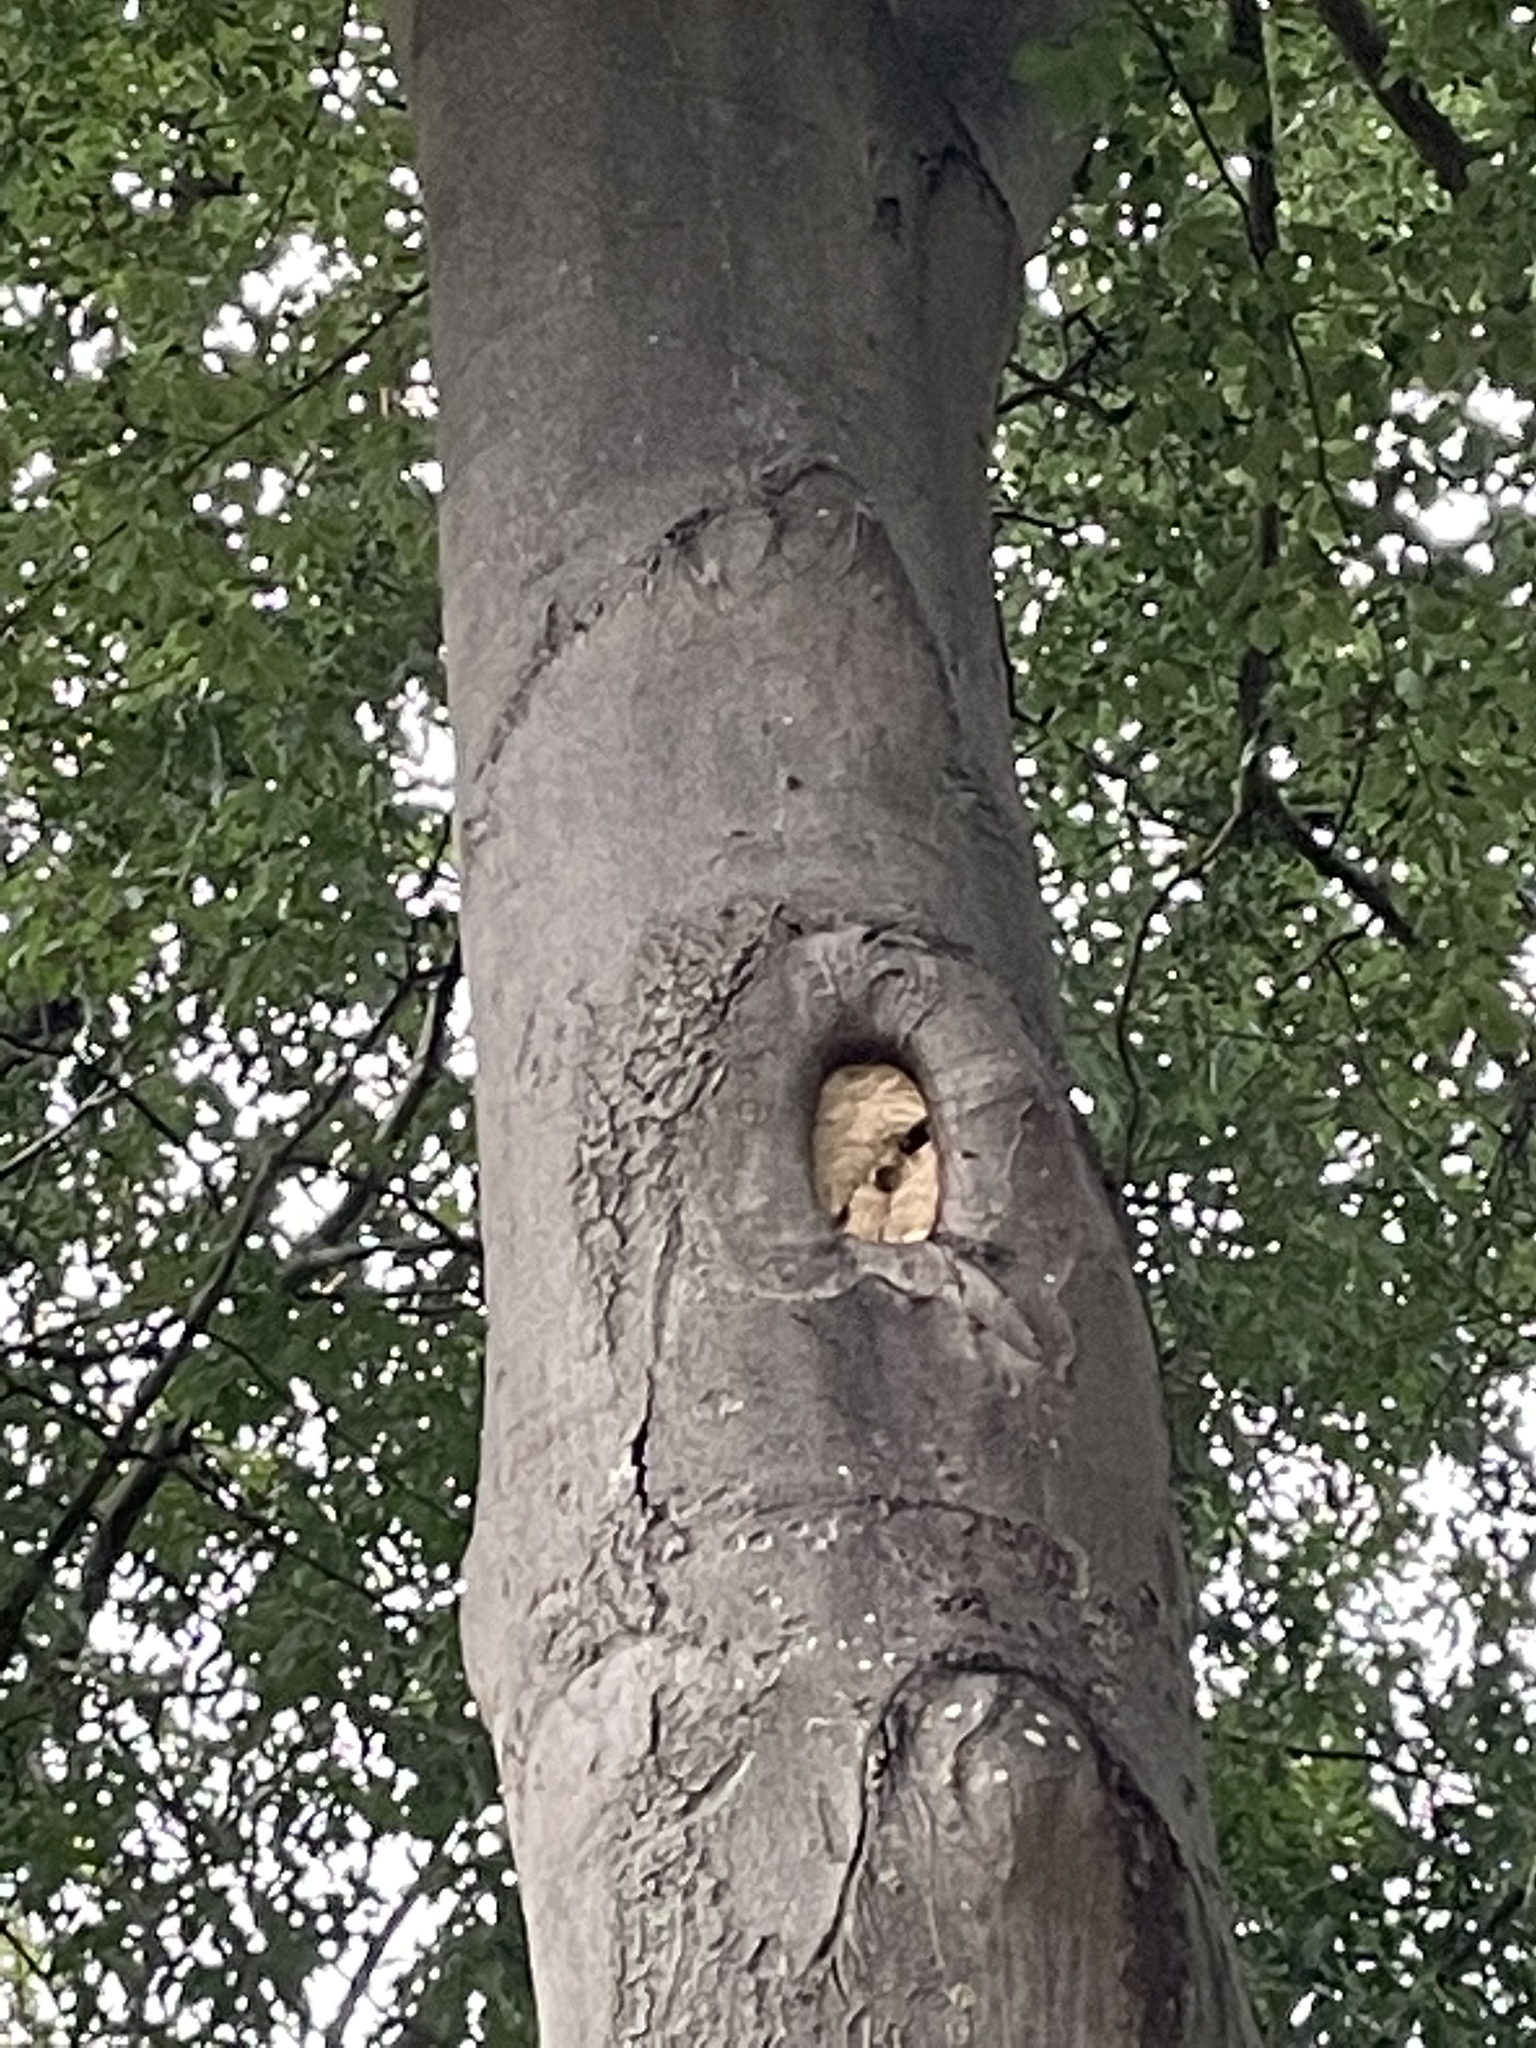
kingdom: Animalia
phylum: Arthropoda
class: Insecta
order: Hymenoptera
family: Vespidae
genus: Vespa
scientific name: Vespa crabro
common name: Hornet
